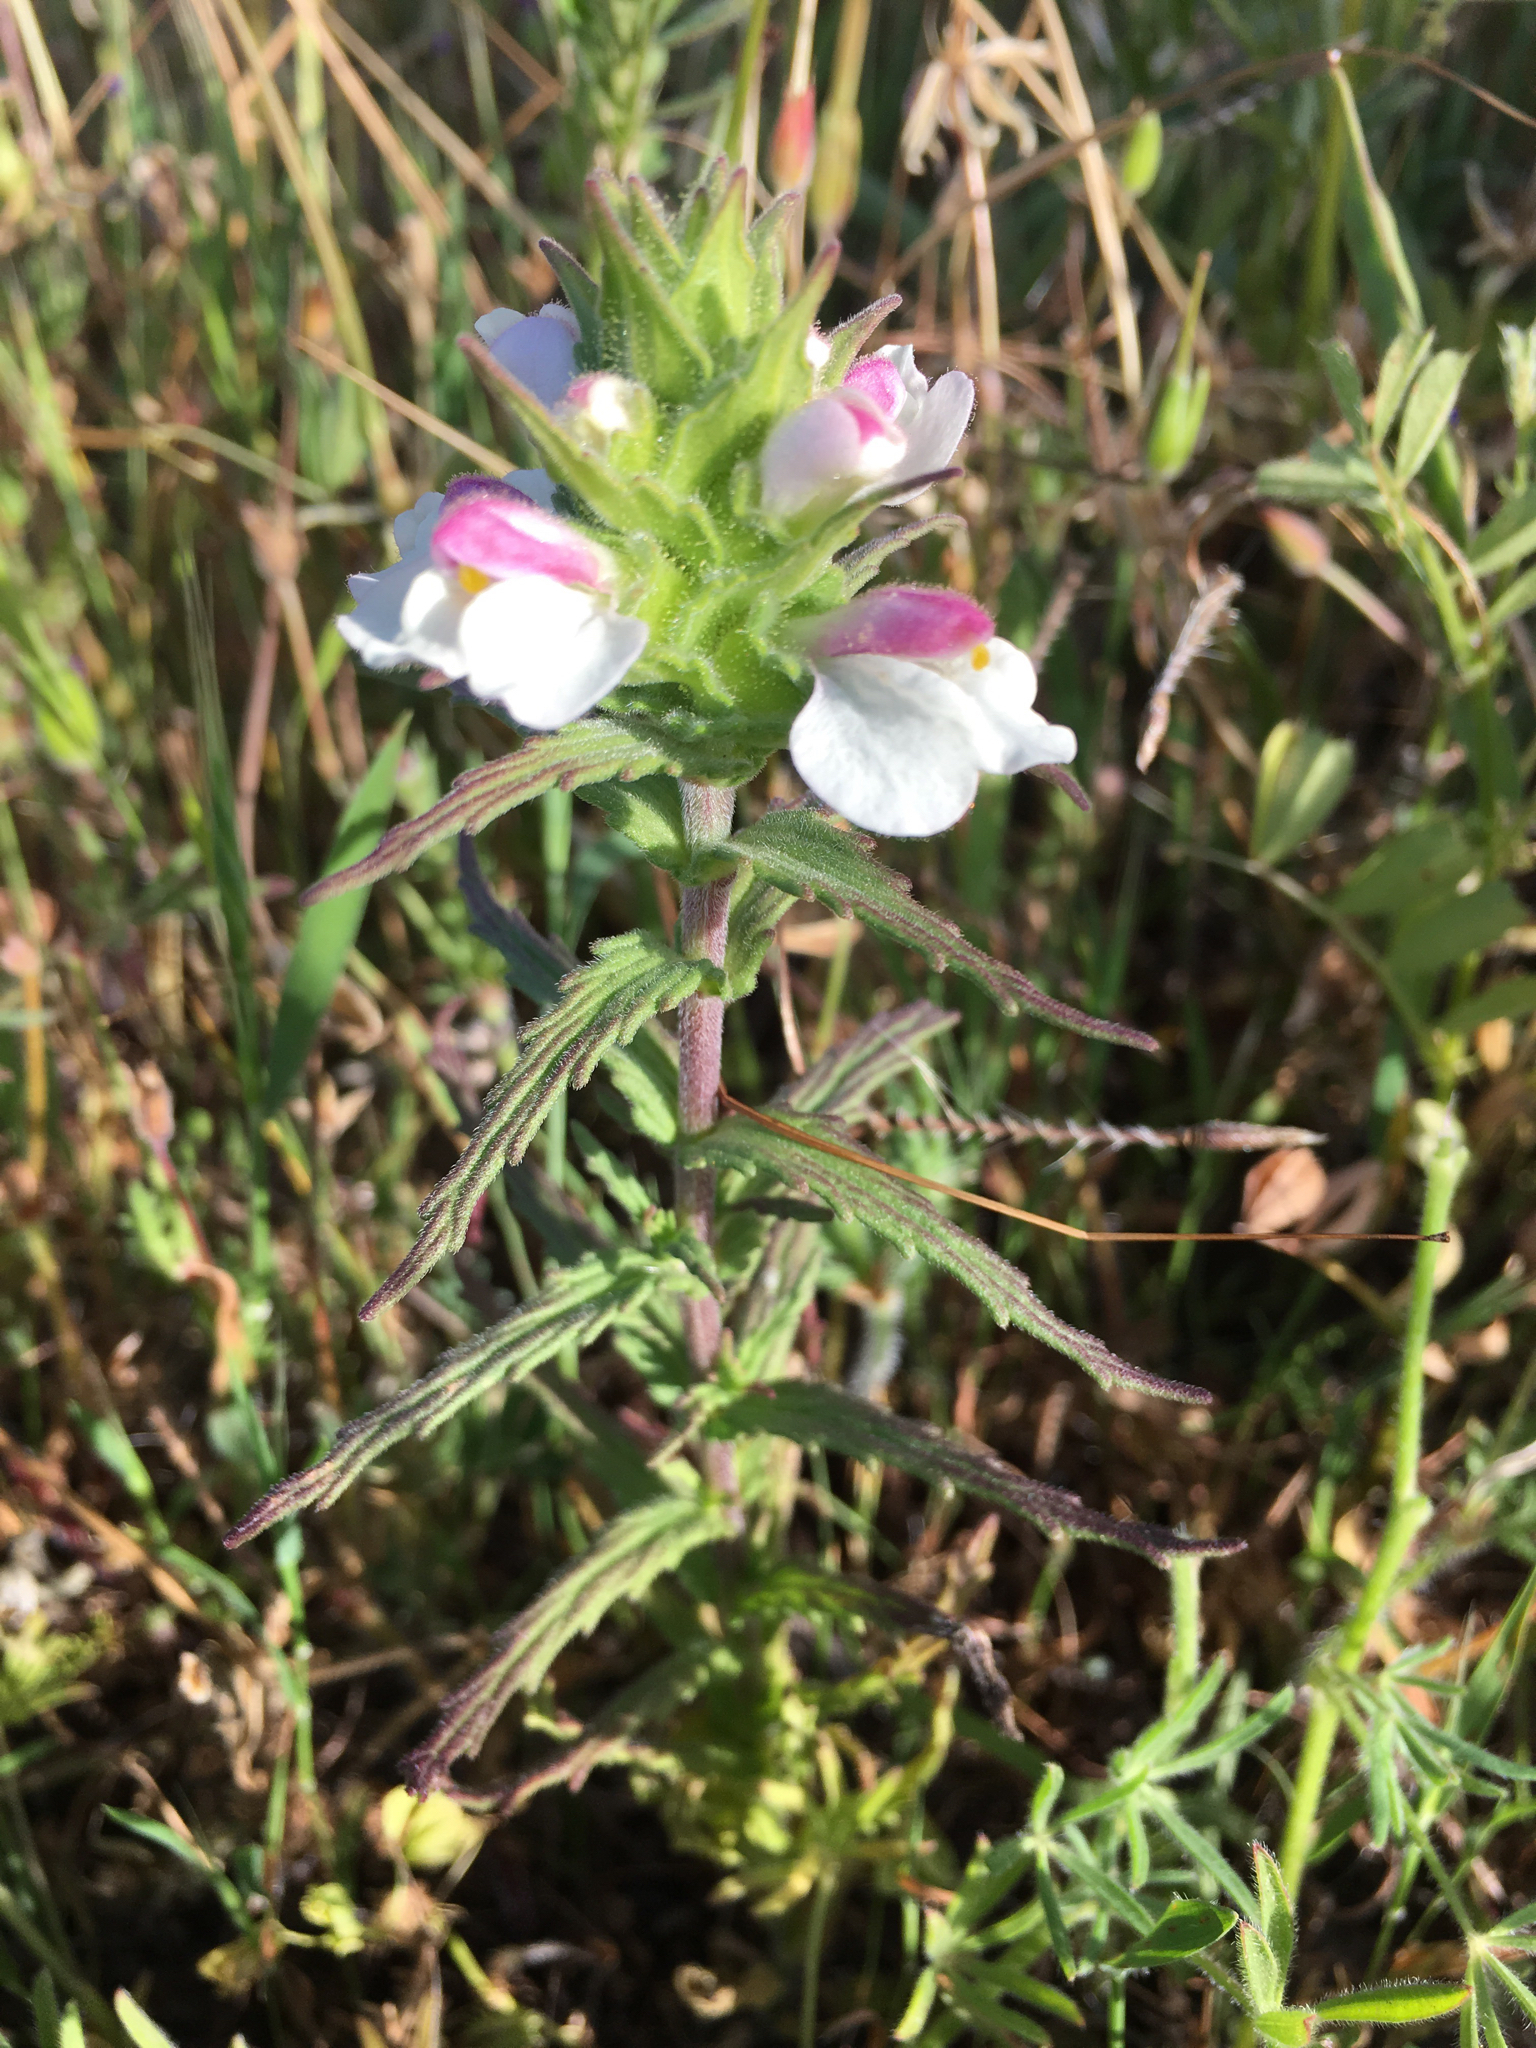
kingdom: Plantae
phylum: Tracheophyta
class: Magnoliopsida
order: Lamiales
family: Orobanchaceae
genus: Bellardia
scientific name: Bellardia trixago
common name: Mediterranean lineseed
